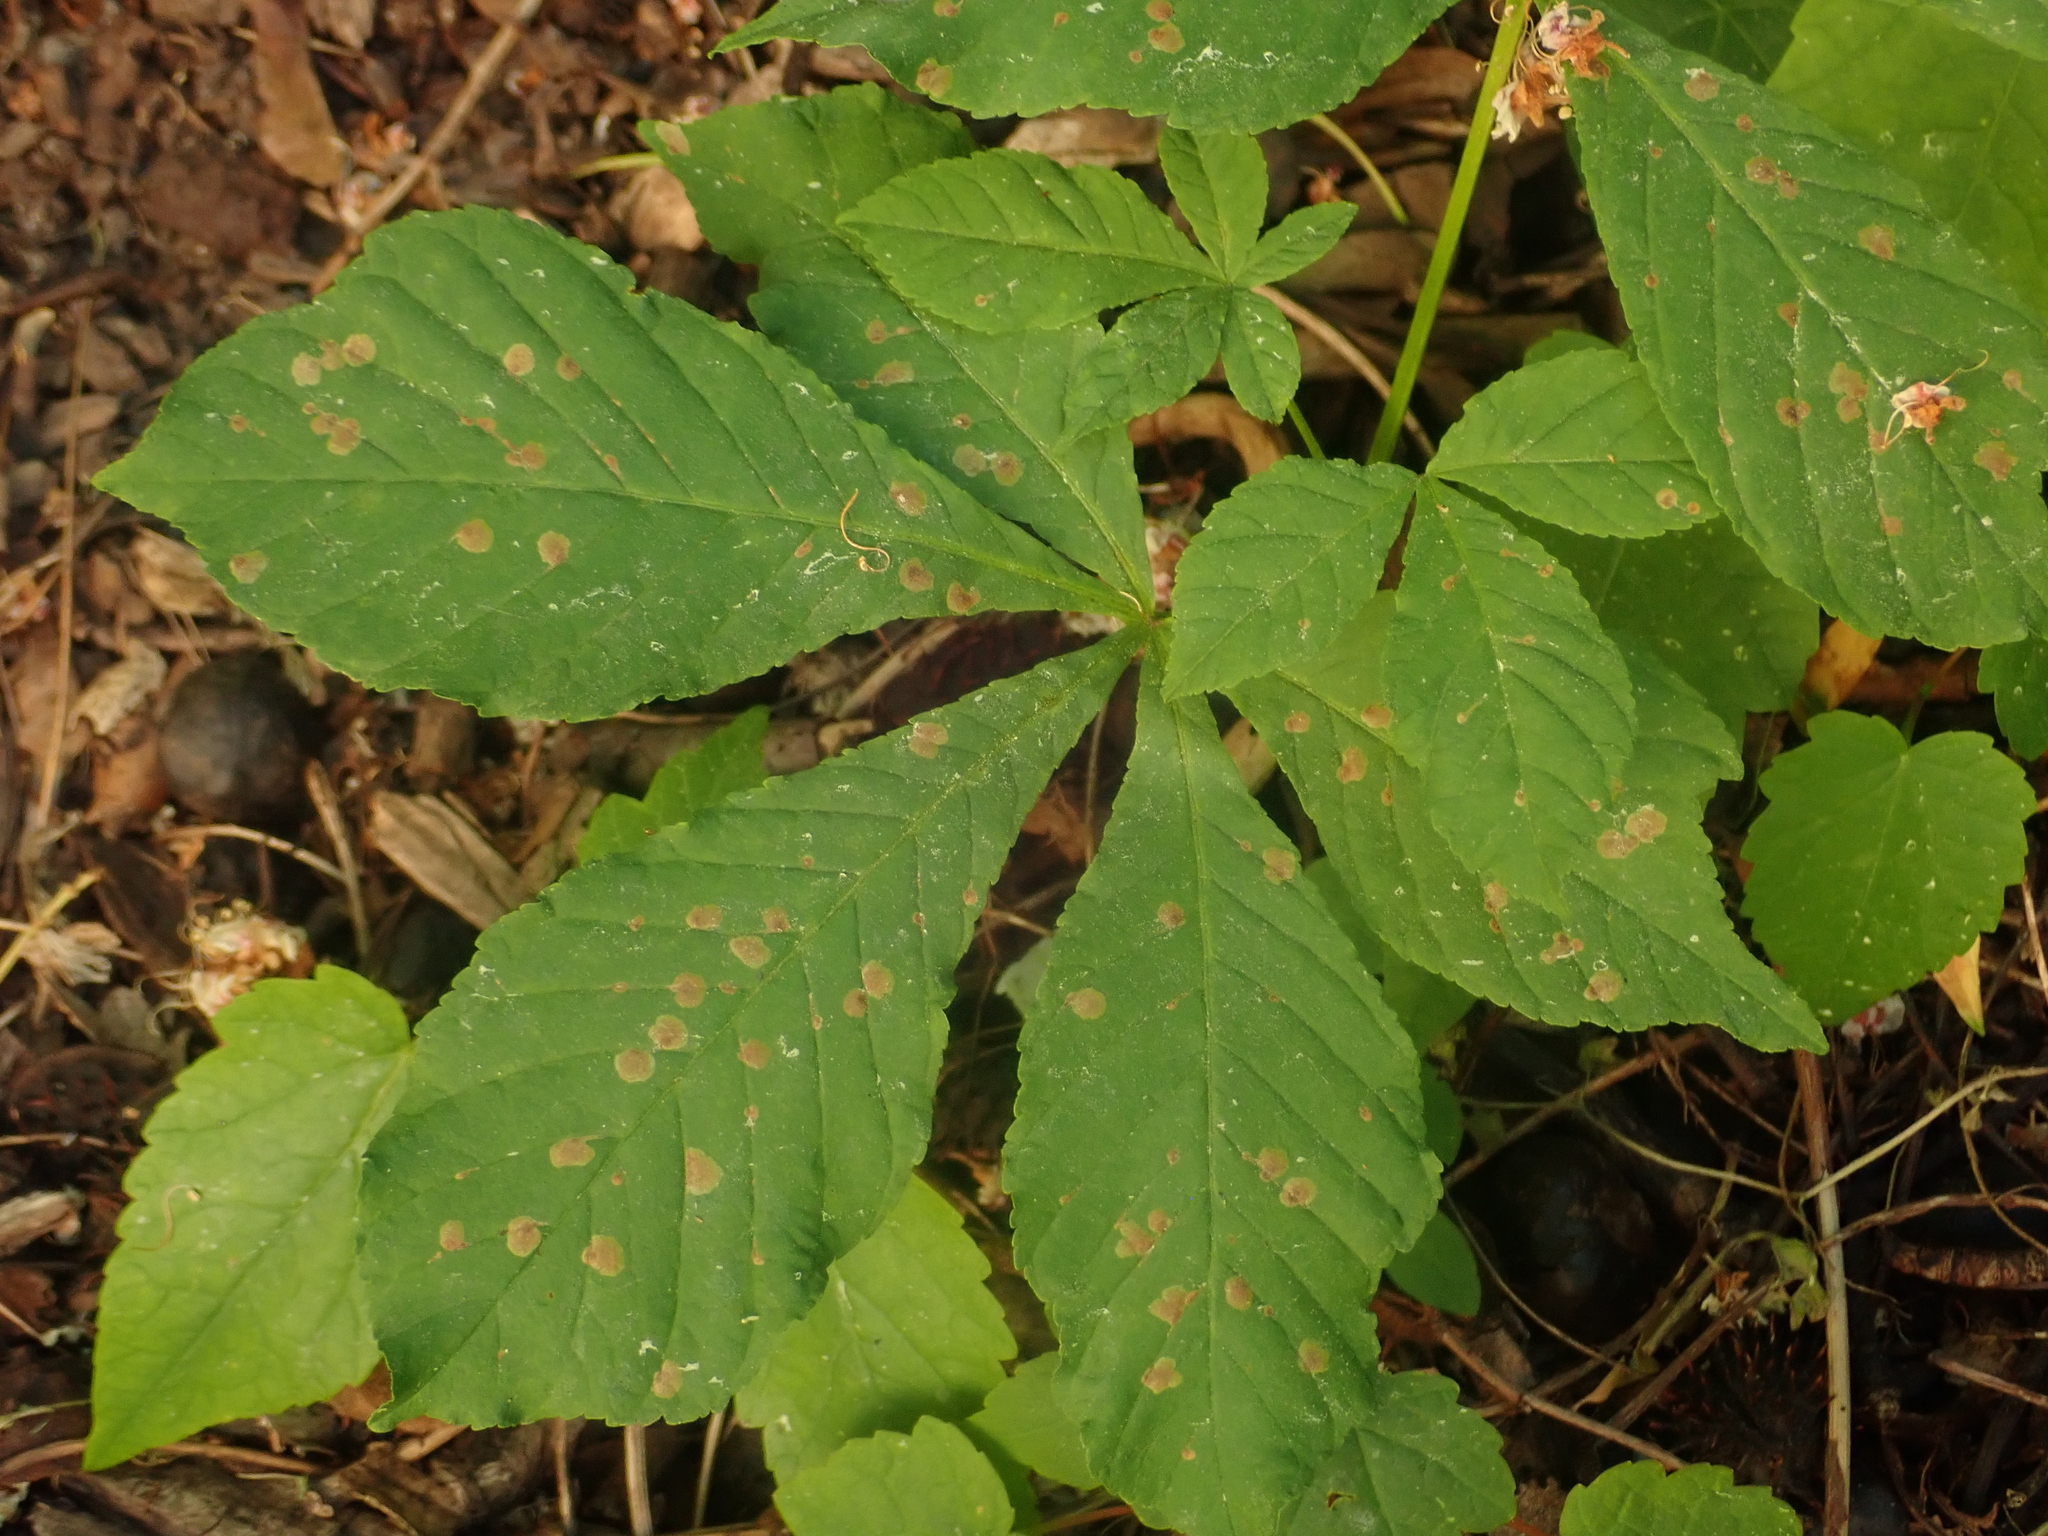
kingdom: Plantae
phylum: Tracheophyta
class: Magnoliopsida
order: Sapindales
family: Sapindaceae
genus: Aesculus
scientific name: Aesculus hippocastanum
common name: Horse-chestnut
